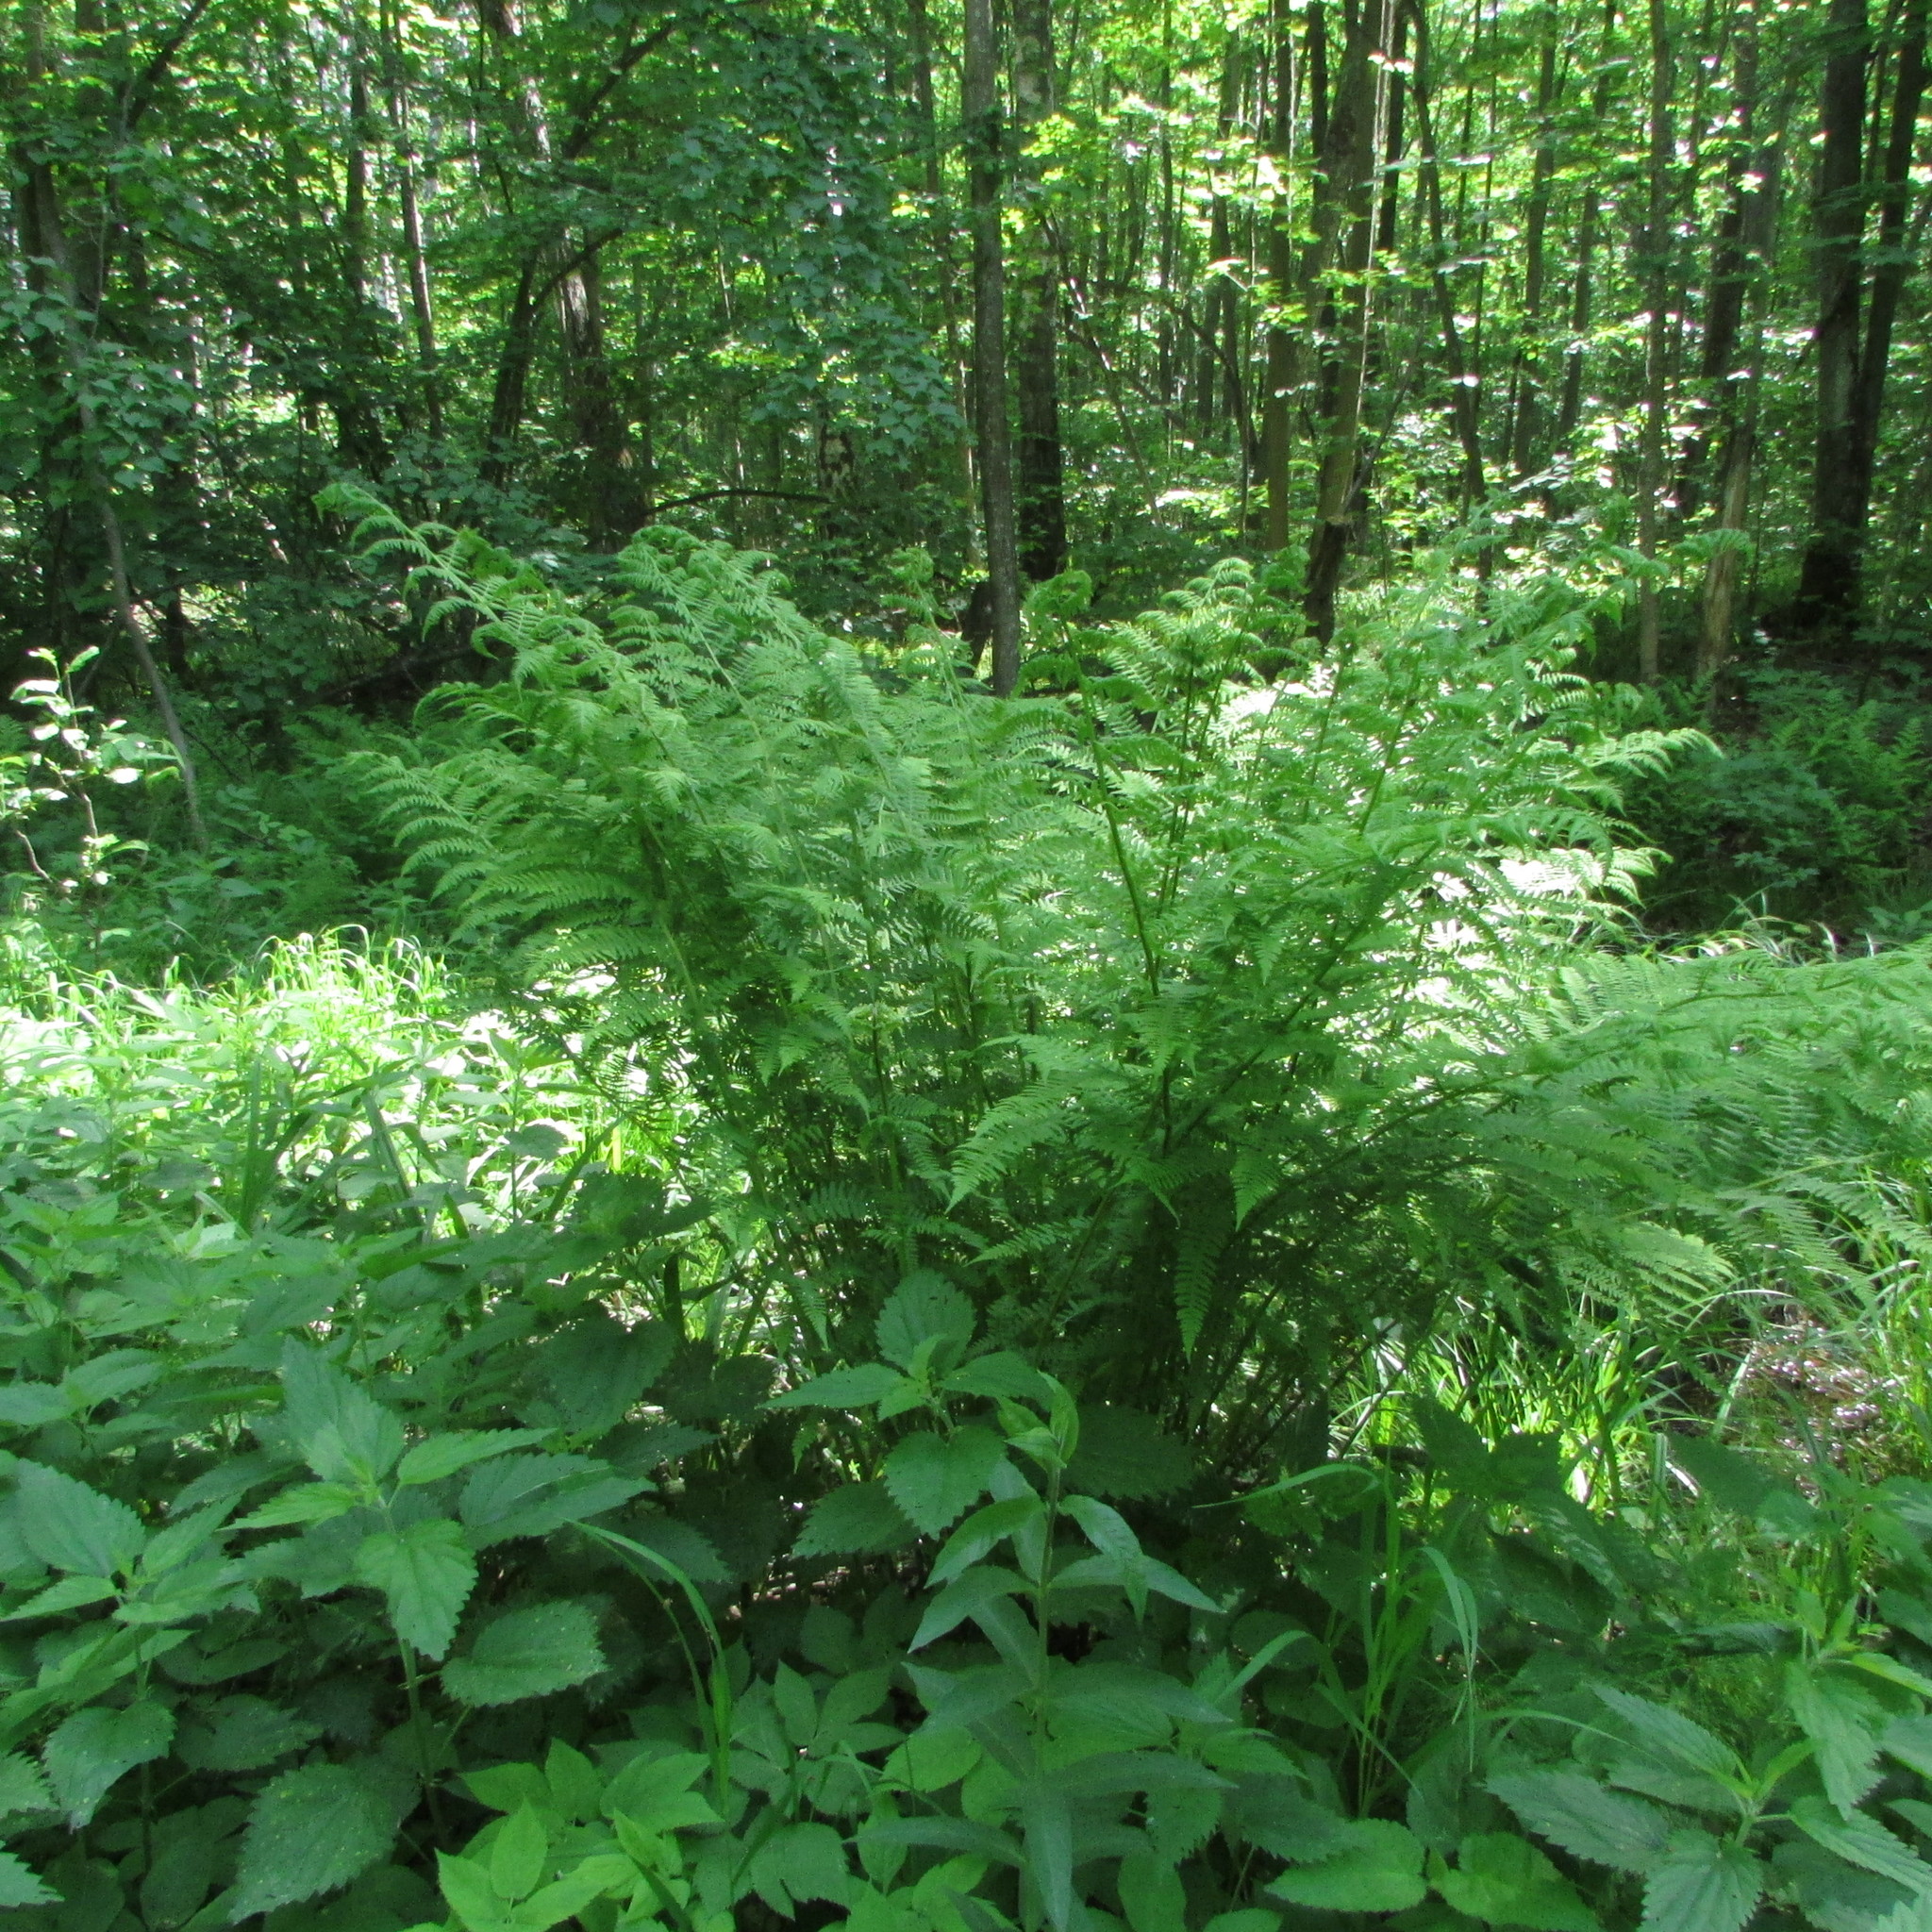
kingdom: Plantae
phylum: Tracheophyta
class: Polypodiopsida
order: Polypodiales
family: Athyriaceae
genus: Athyrium
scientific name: Athyrium filix-femina
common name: Lady fern
